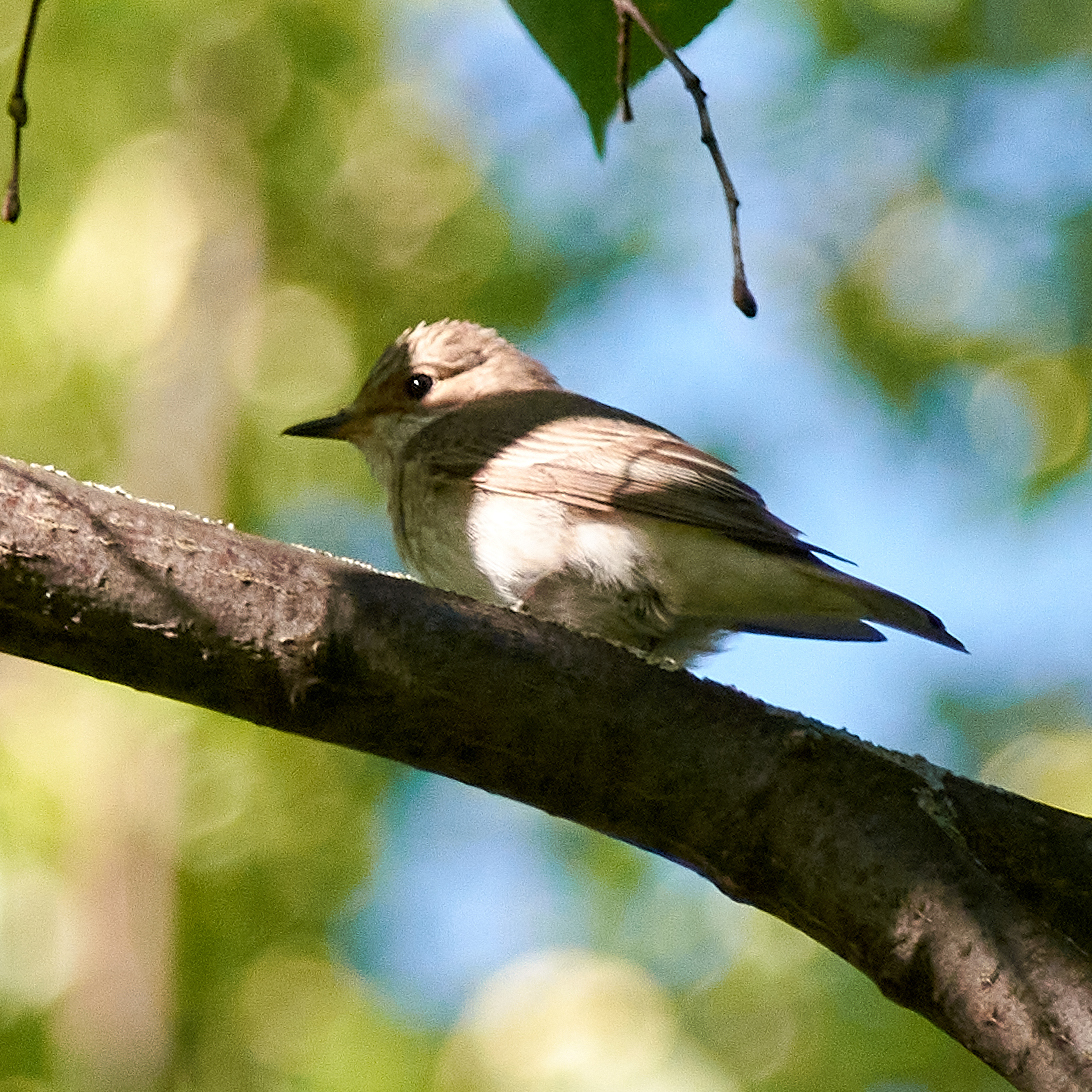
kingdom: Animalia
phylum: Chordata
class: Aves
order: Passeriformes
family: Muscicapidae
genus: Muscicapa
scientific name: Muscicapa striata
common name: Spotted flycatcher
